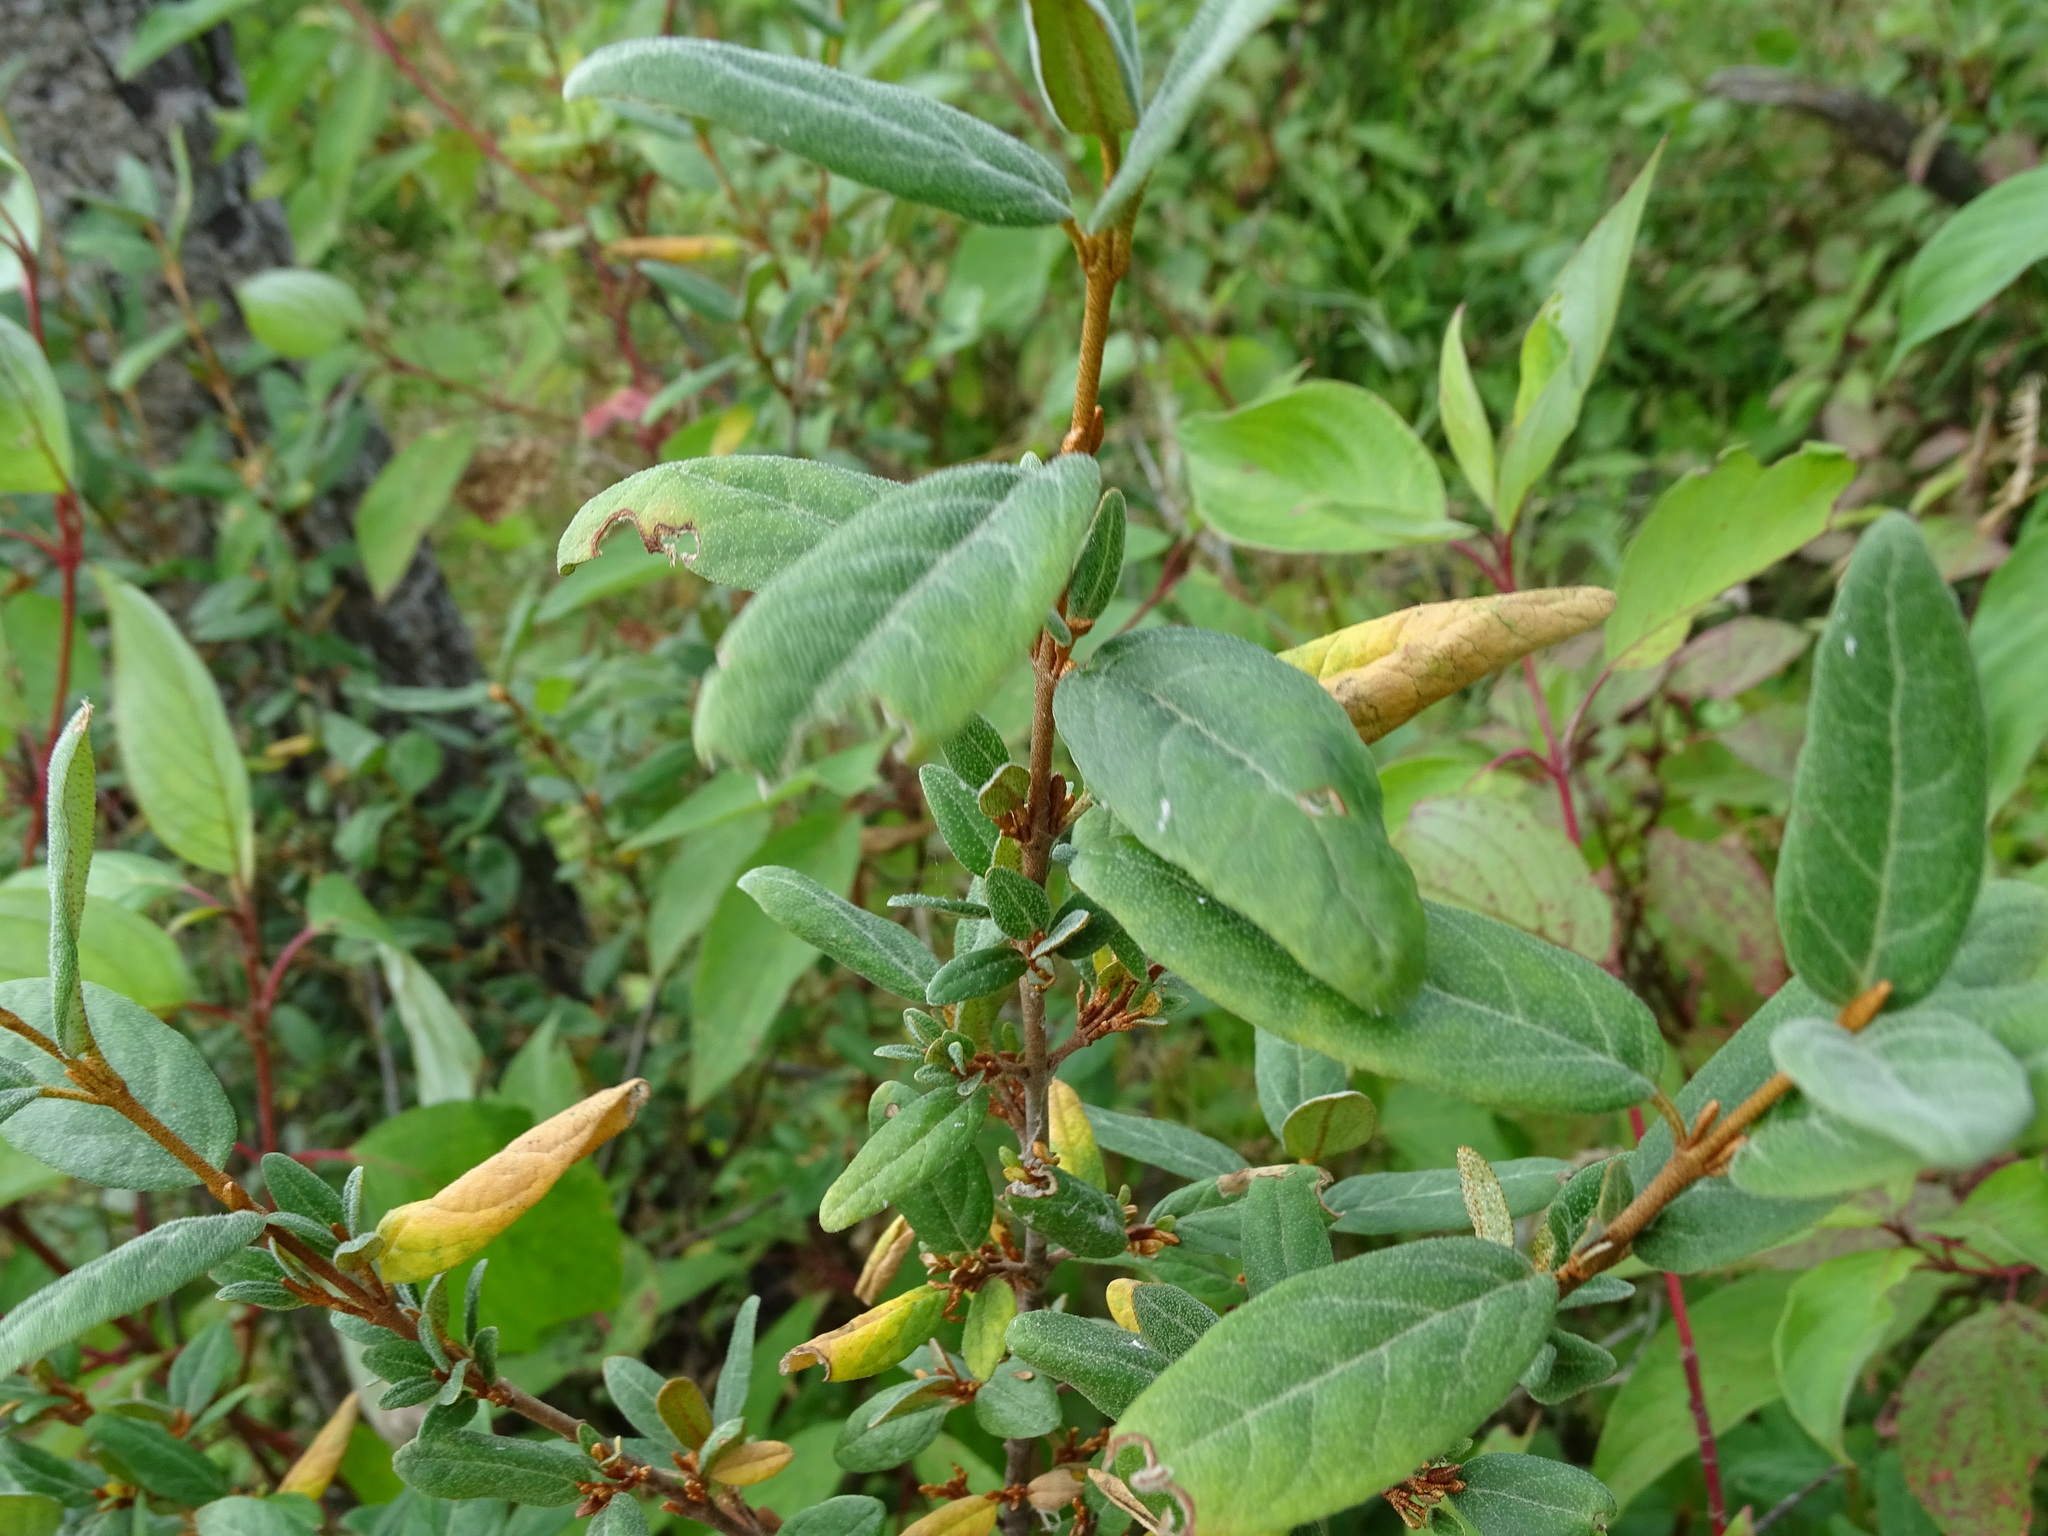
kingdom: Plantae
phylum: Tracheophyta
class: Magnoliopsida
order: Rosales
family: Elaeagnaceae
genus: Shepherdia
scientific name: Shepherdia canadensis
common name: Soapberry
